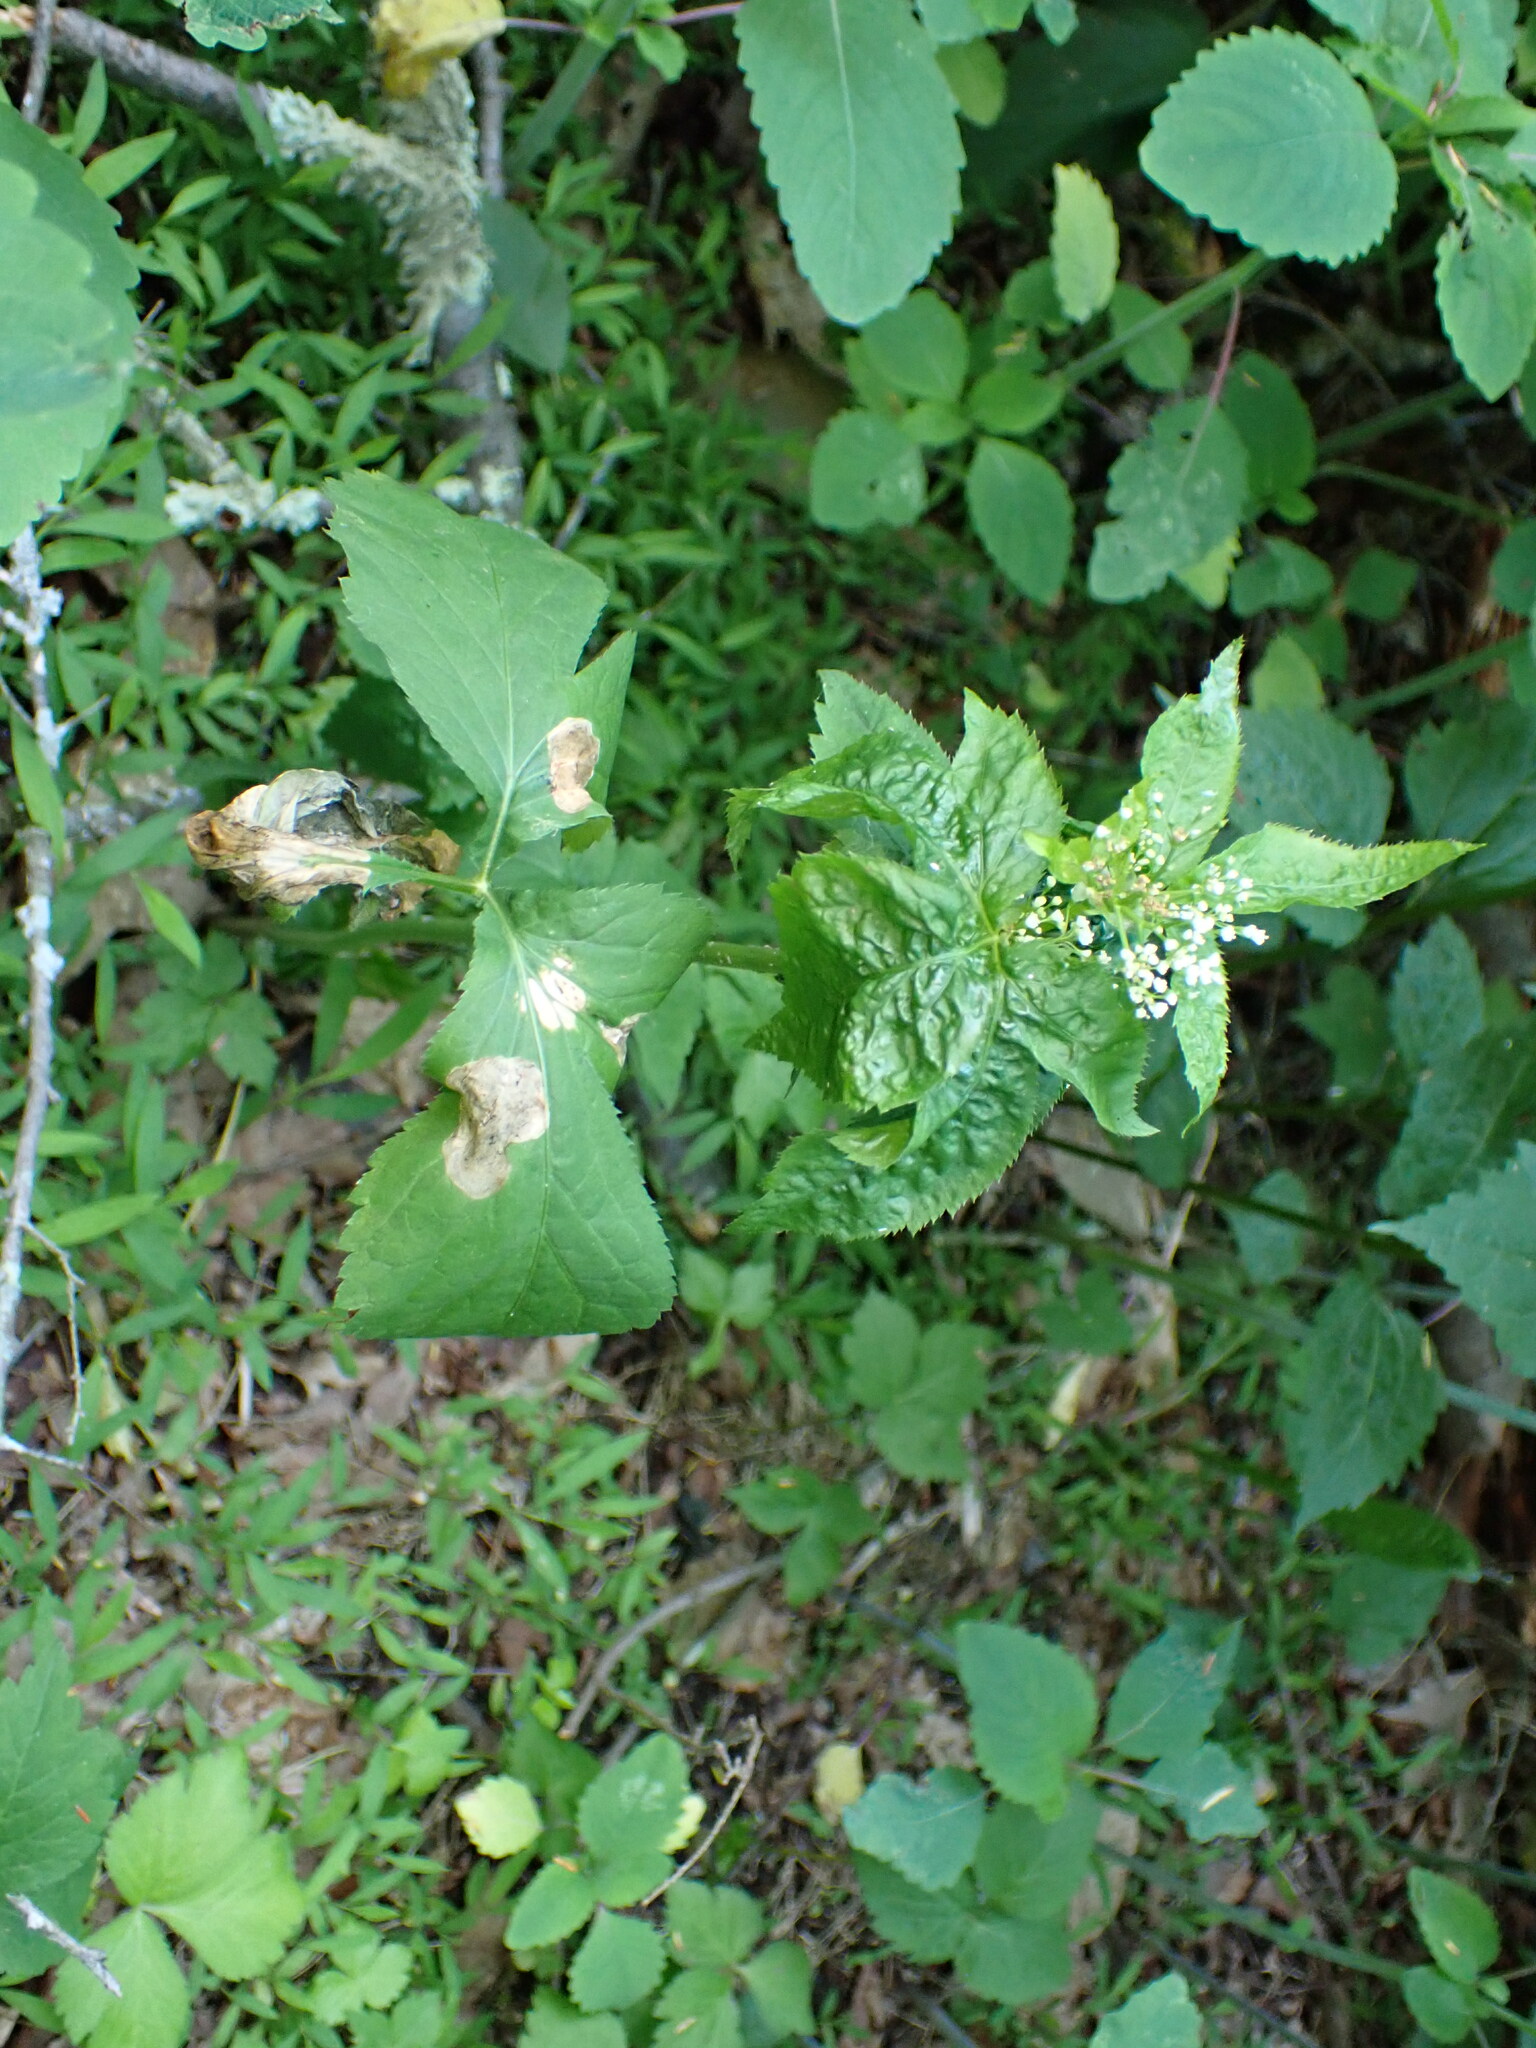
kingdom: Plantae
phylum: Tracheophyta
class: Magnoliopsida
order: Apiales
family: Apiaceae
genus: Cryptotaenia
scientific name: Cryptotaenia canadensis
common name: Honewort
